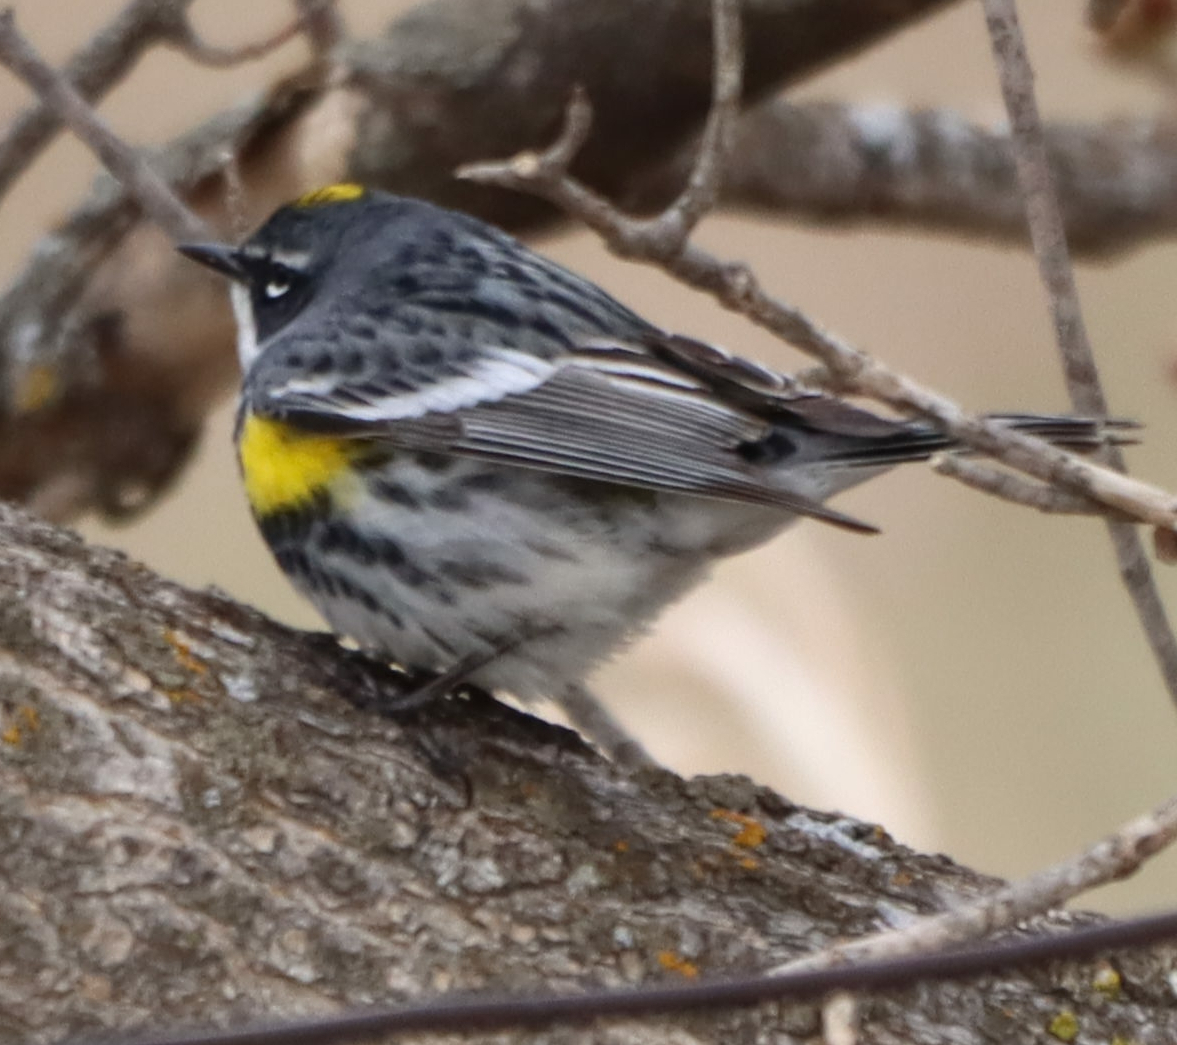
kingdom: Animalia
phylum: Chordata
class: Aves
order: Passeriformes
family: Parulidae
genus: Setophaga
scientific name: Setophaga coronata
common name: Myrtle warbler
